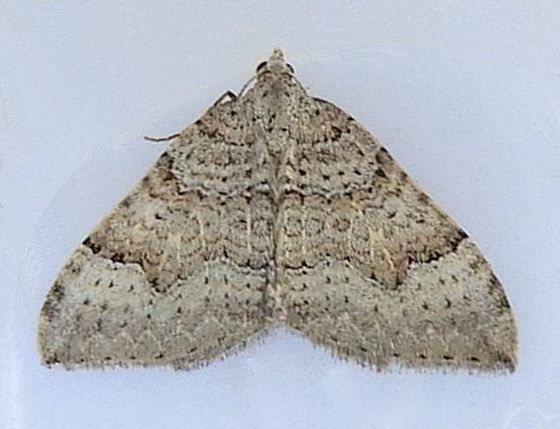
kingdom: Animalia
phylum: Arthropoda
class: Insecta
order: Lepidoptera
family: Geometridae
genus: Zenophleps
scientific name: Zenophleps lignicolorata
